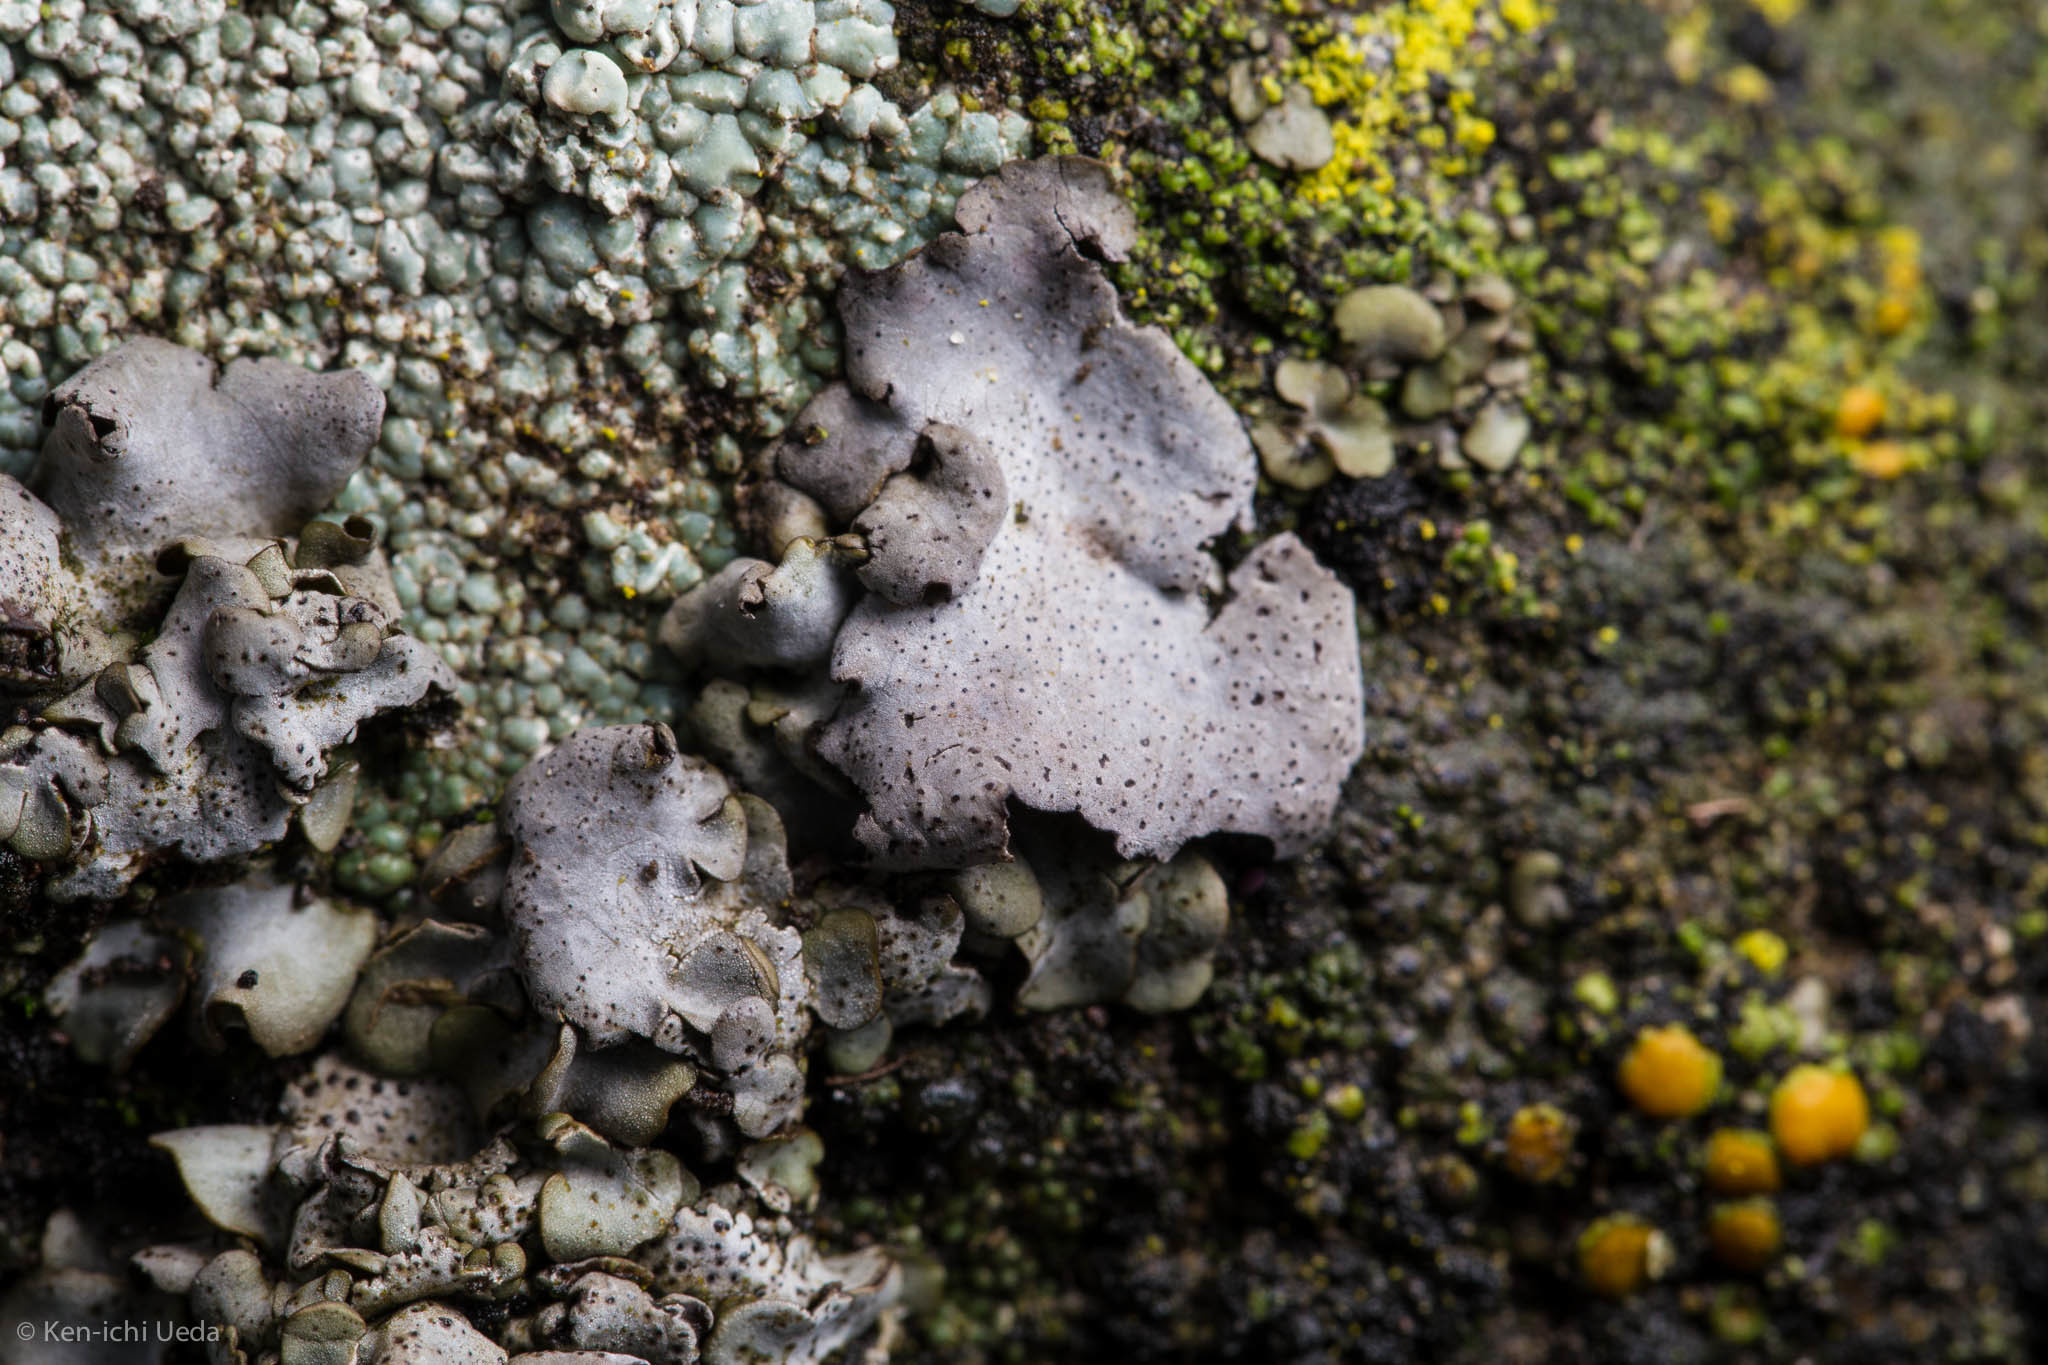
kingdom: Fungi
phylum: Ascomycota
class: Eurotiomycetes
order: Verrucariales
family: Verrucariaceae
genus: Dermatocarpon
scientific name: Dermatocarpon americanum
